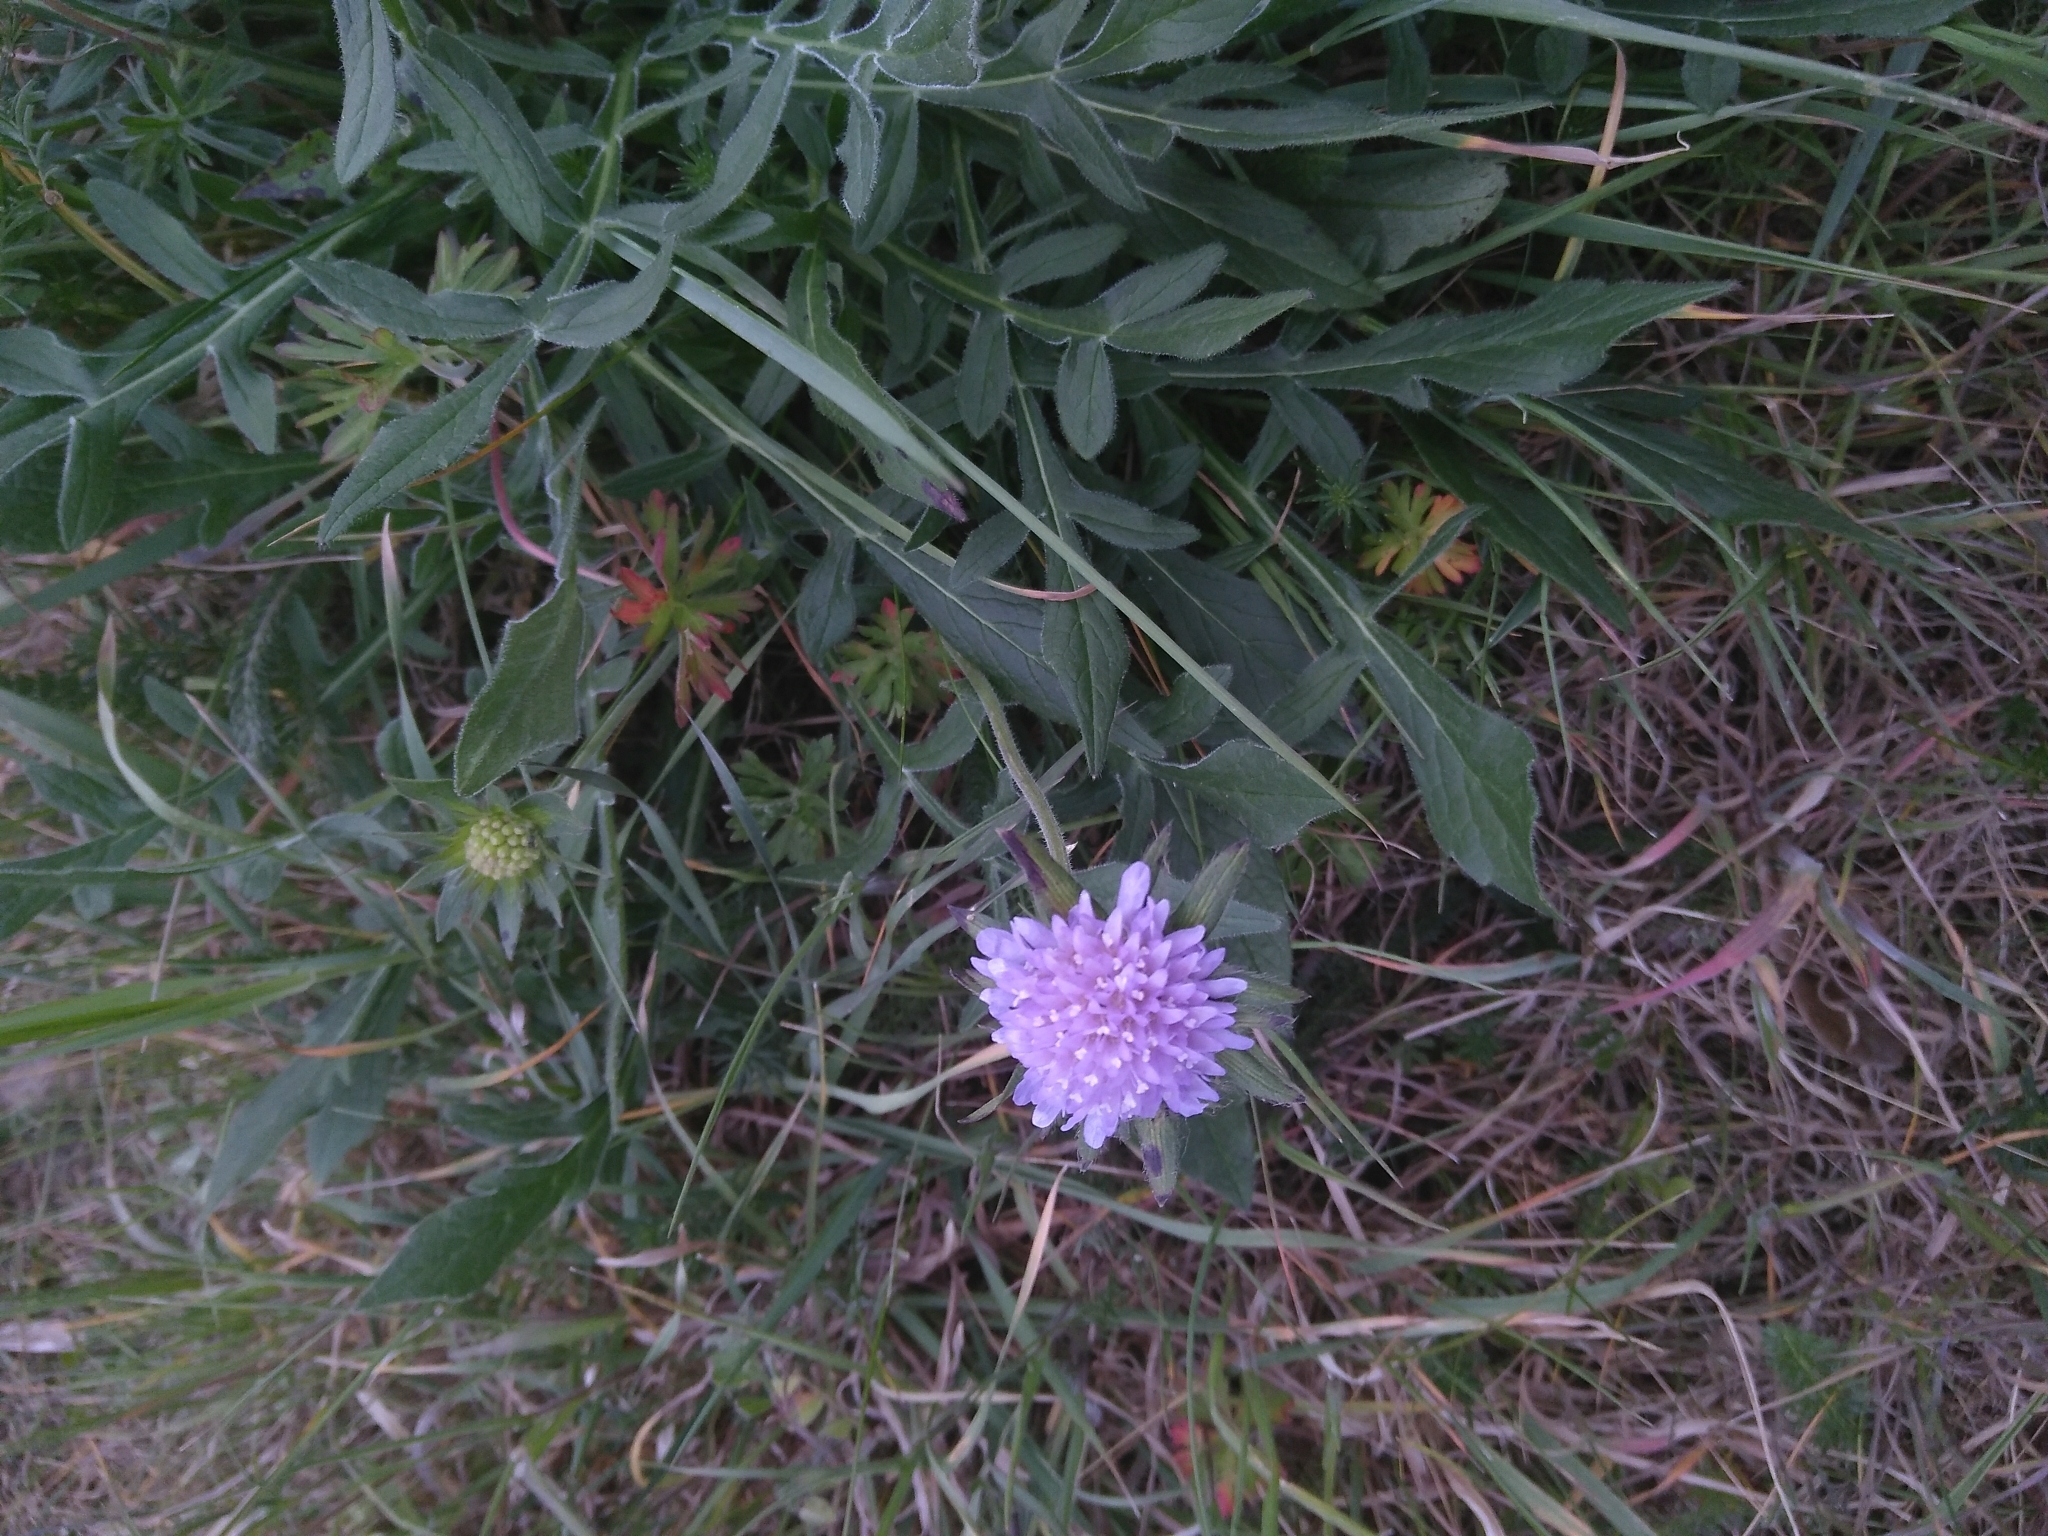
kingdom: Plantae
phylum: Tracheophyta
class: Magnoliopsida
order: Dipsacales
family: Caprifoliaceae
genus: Knautia
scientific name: Knautia arvensis
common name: Field scabiosa
